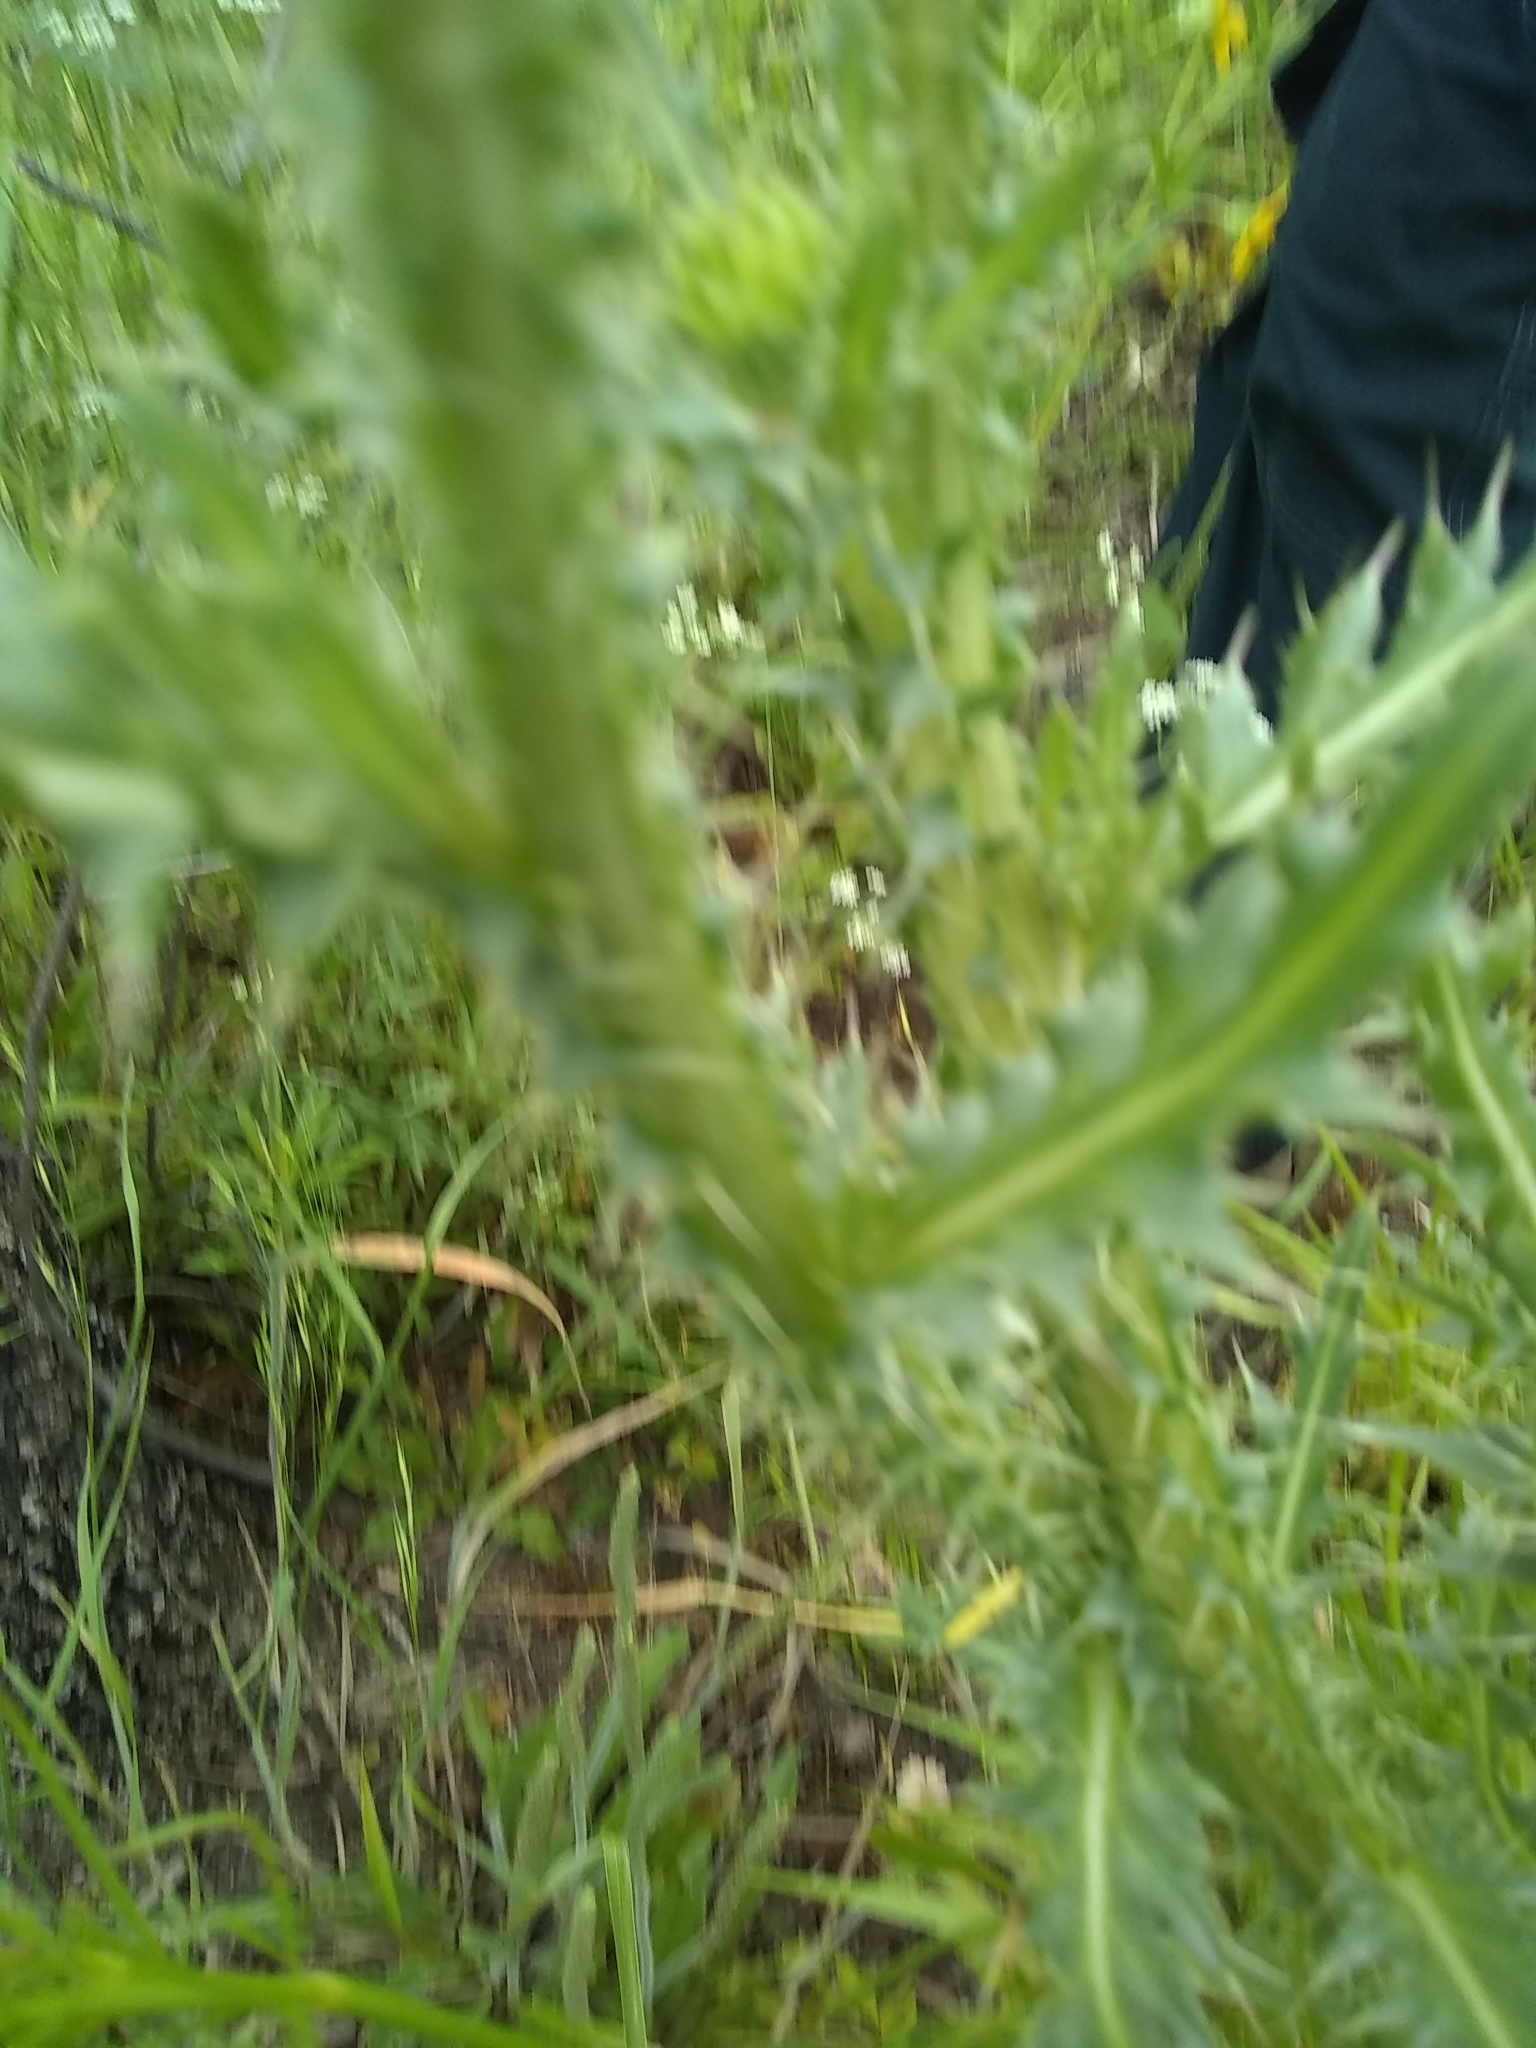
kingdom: Plantae
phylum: Tracheophyta
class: Magnoliopsida
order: Asterales
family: Asteraceae
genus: Carduus
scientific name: Carduus nutans
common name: Musk thistle
